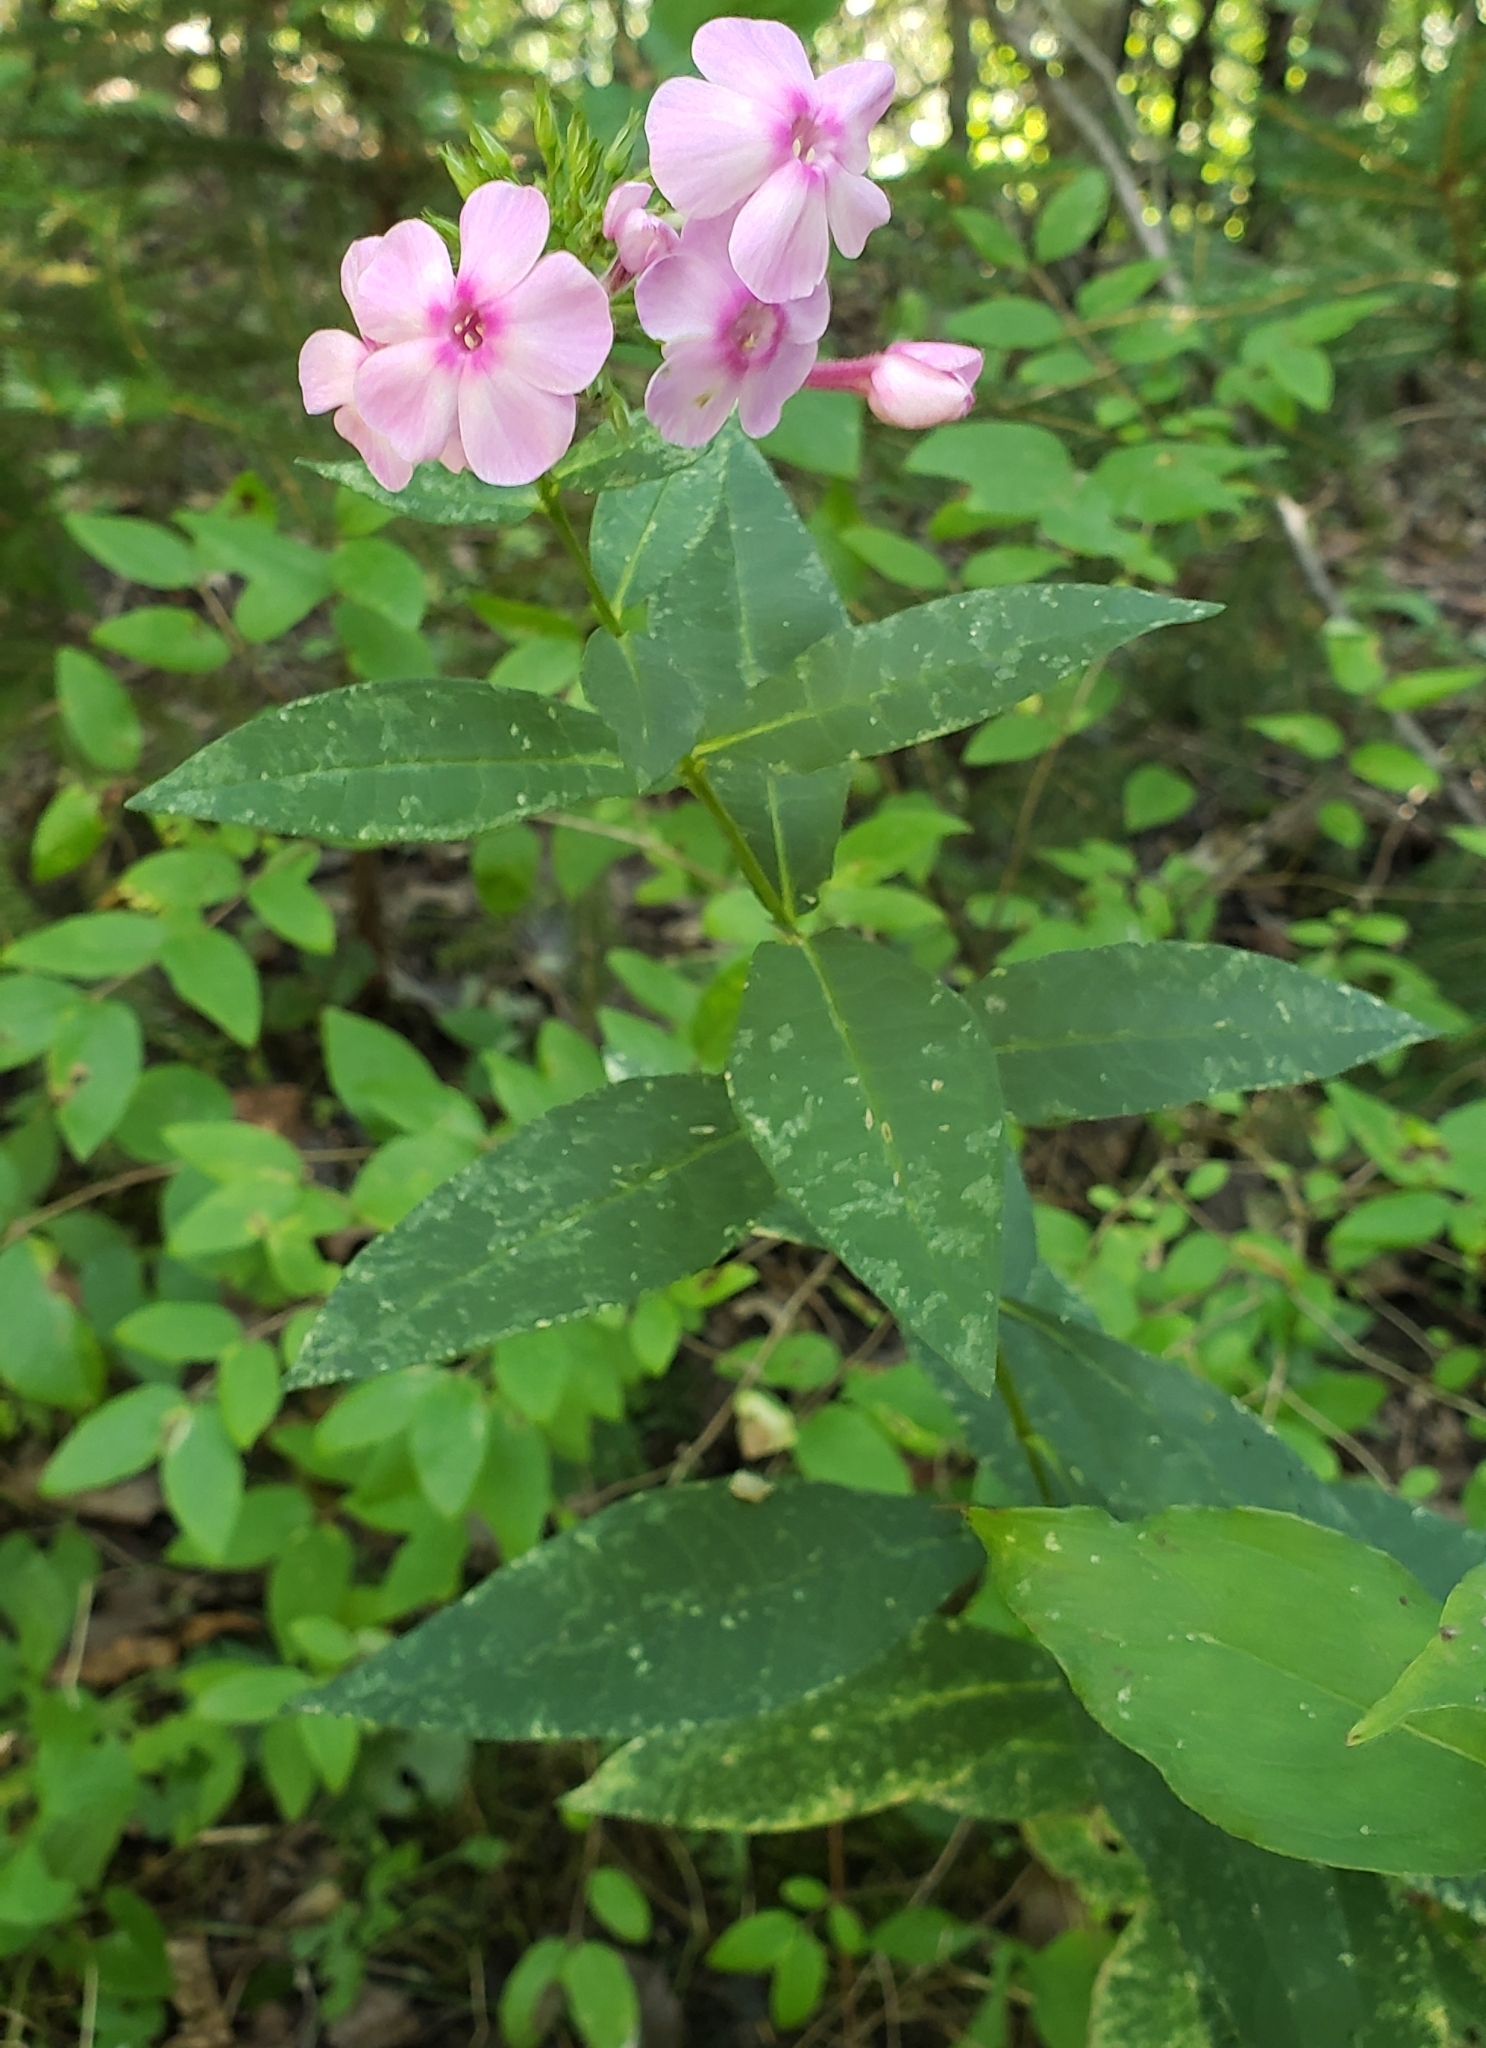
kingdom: Plantae
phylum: Tracheophyta
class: Magnoliopsida
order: Ericales
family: Polemoniaceae
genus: Phlox
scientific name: Phlox paniculata
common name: Fall phlox
